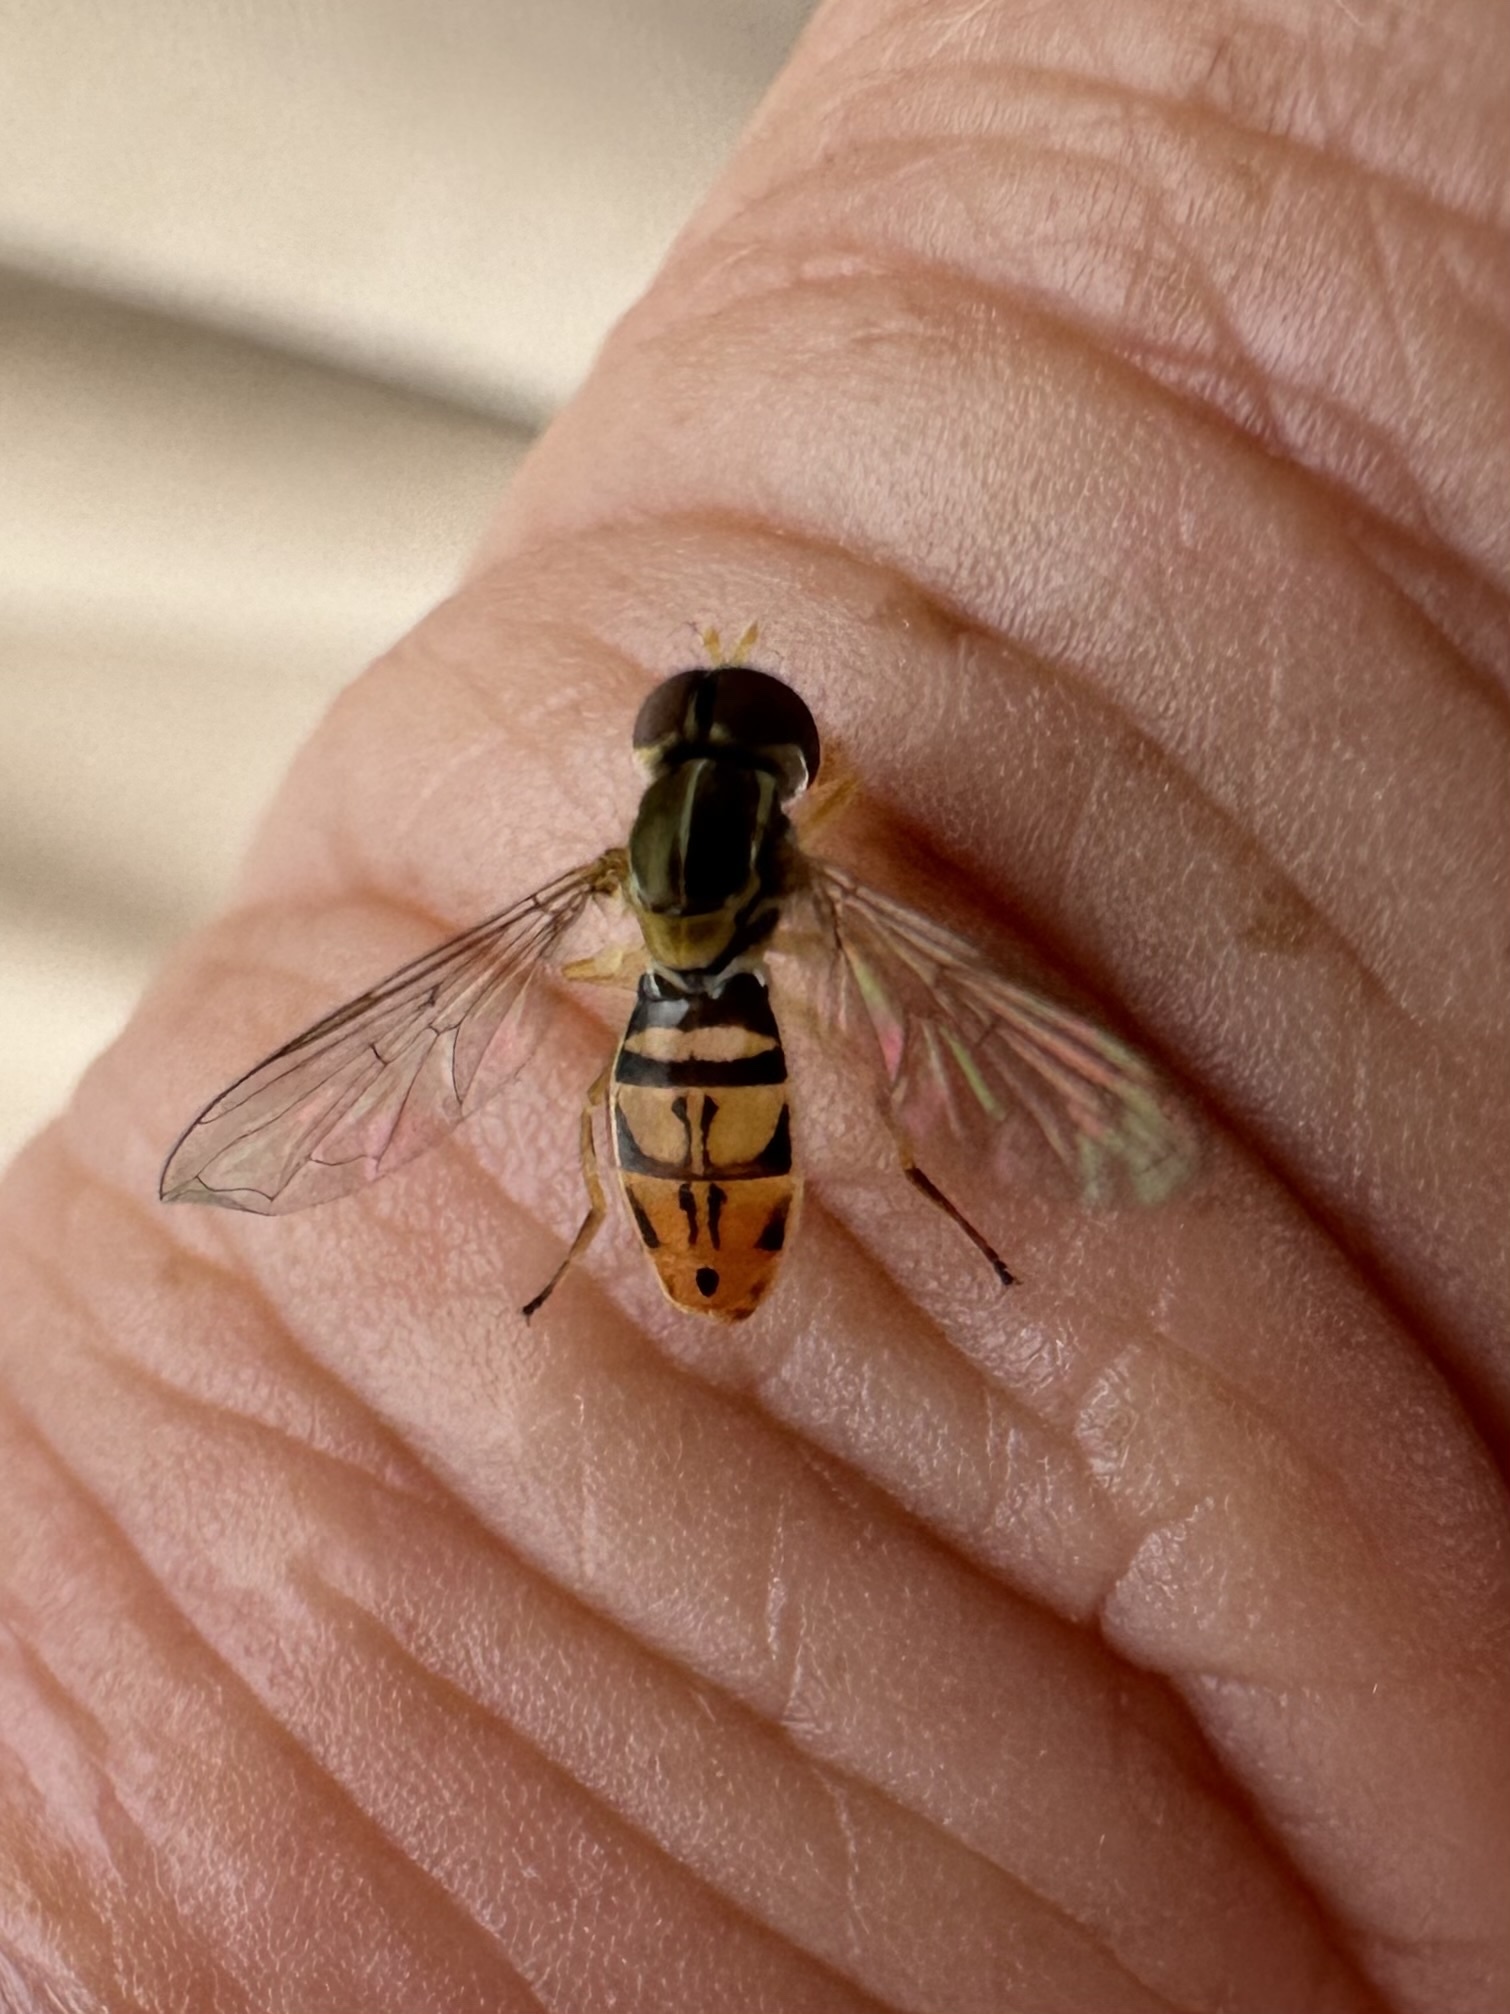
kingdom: Animalia
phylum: Arthropoda
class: Insecta
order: Diptera
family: Syrphidae
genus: Toxomerus
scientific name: Toxomerus marginatus
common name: Syrphid fly
